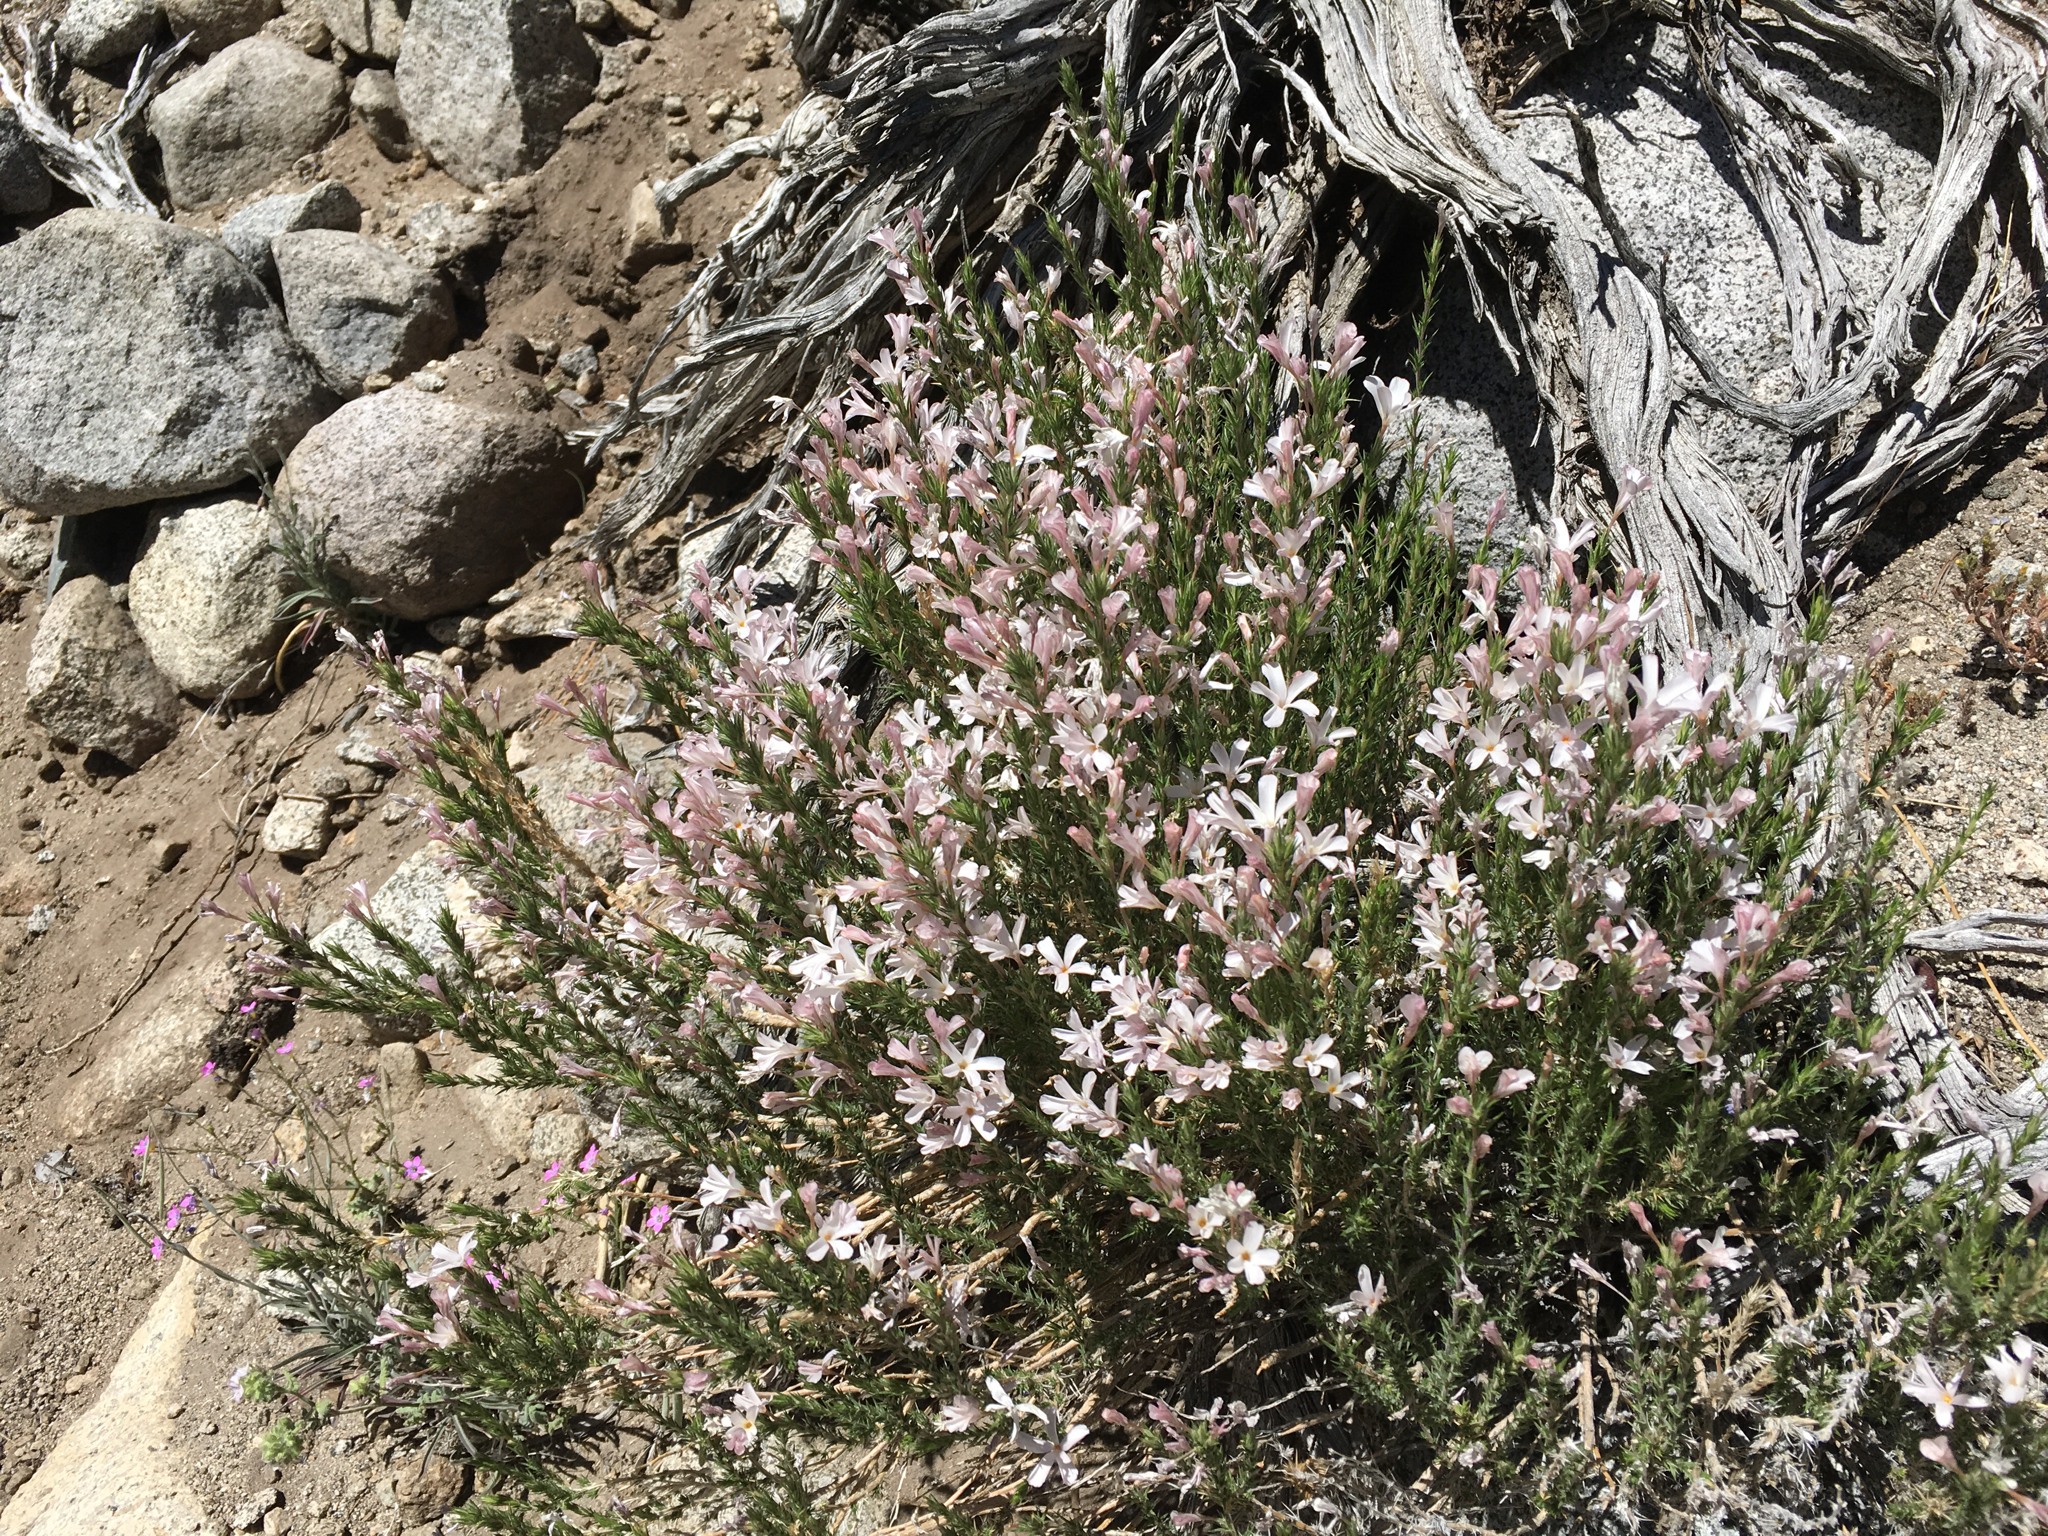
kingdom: Plantae
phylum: Tracheophyta
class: Magnoliopsida
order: Ericales
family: Polemoniaceae
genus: Linanthus
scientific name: Linanthus pungens
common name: Granite prickly phlox
